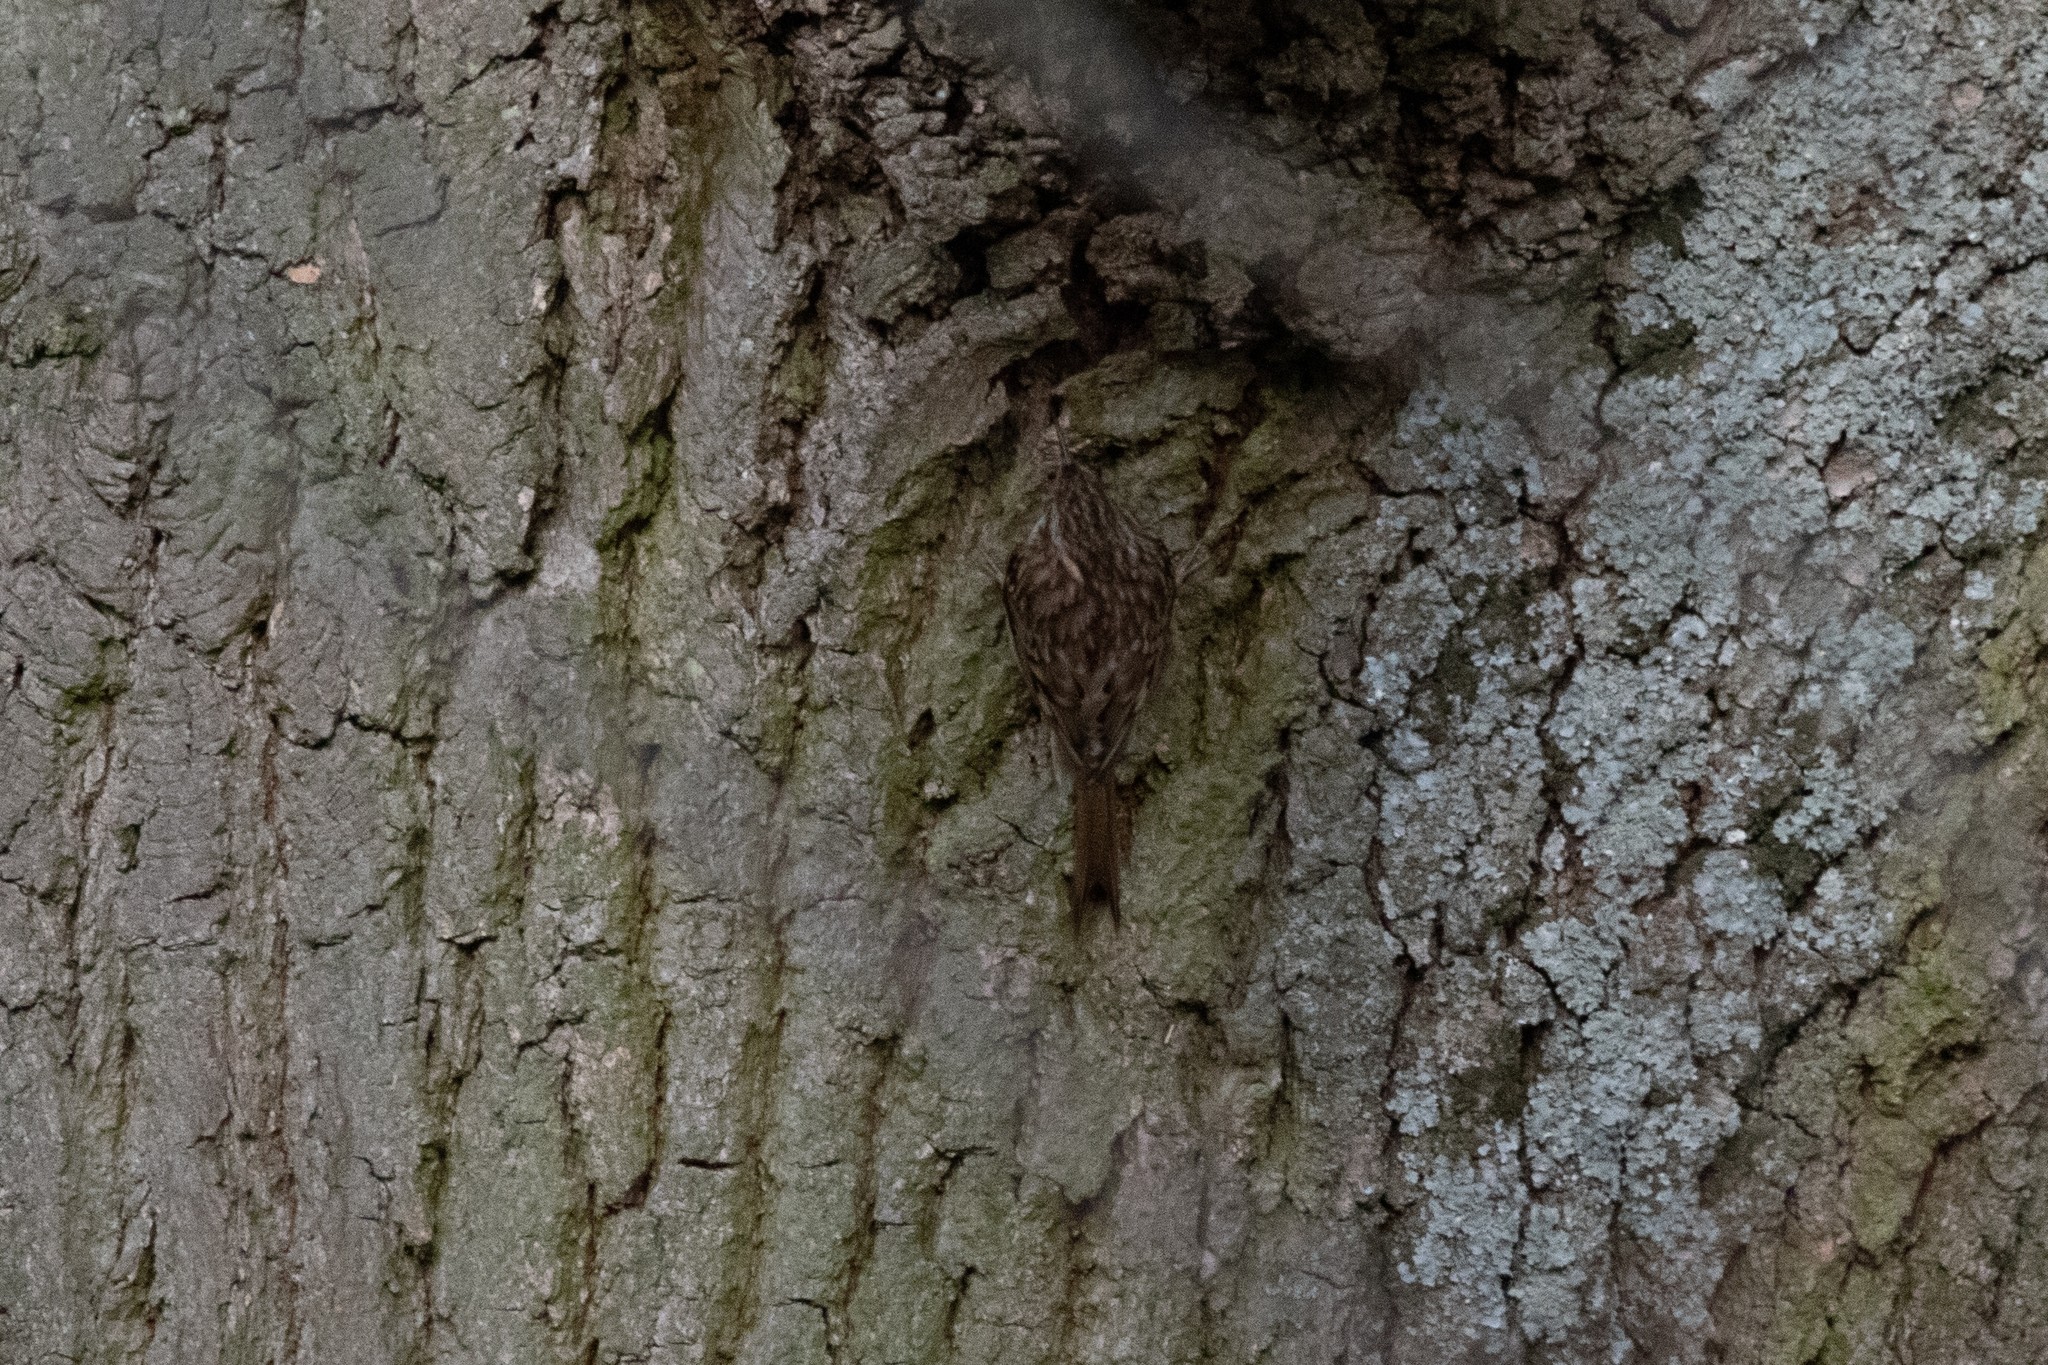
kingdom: Animalia
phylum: Chordata
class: Aves
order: Passeriformes
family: Certhiidae
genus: Certhia
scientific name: Certhia brachydactyla
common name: Short-toed treecreeper
